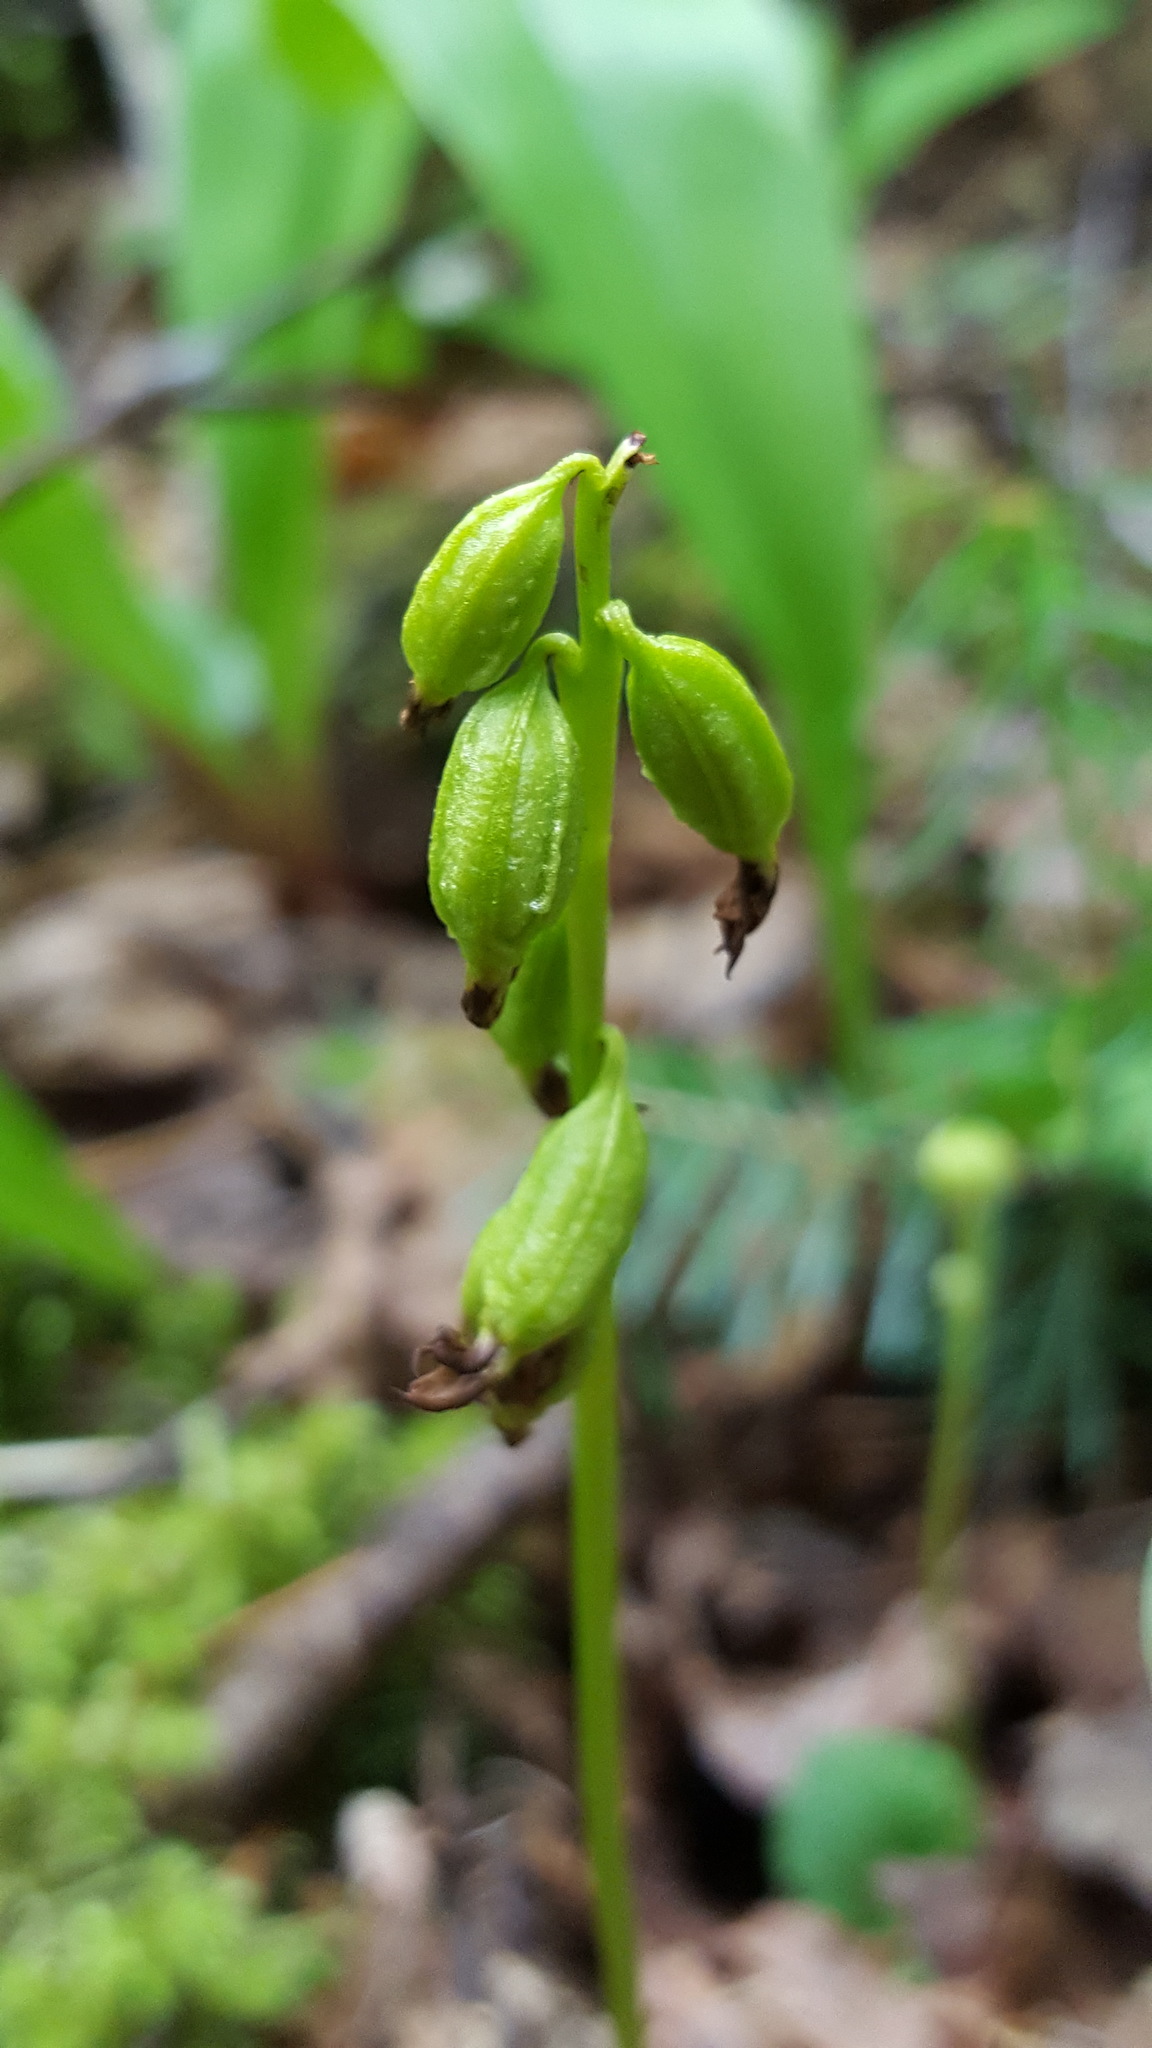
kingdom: Plantae
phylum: Tracheophyta
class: Liliopsida
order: Asparagales
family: Orchidaceae
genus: Corallorhiza
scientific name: Corallorhiza trifida
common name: Yellow coralroot
